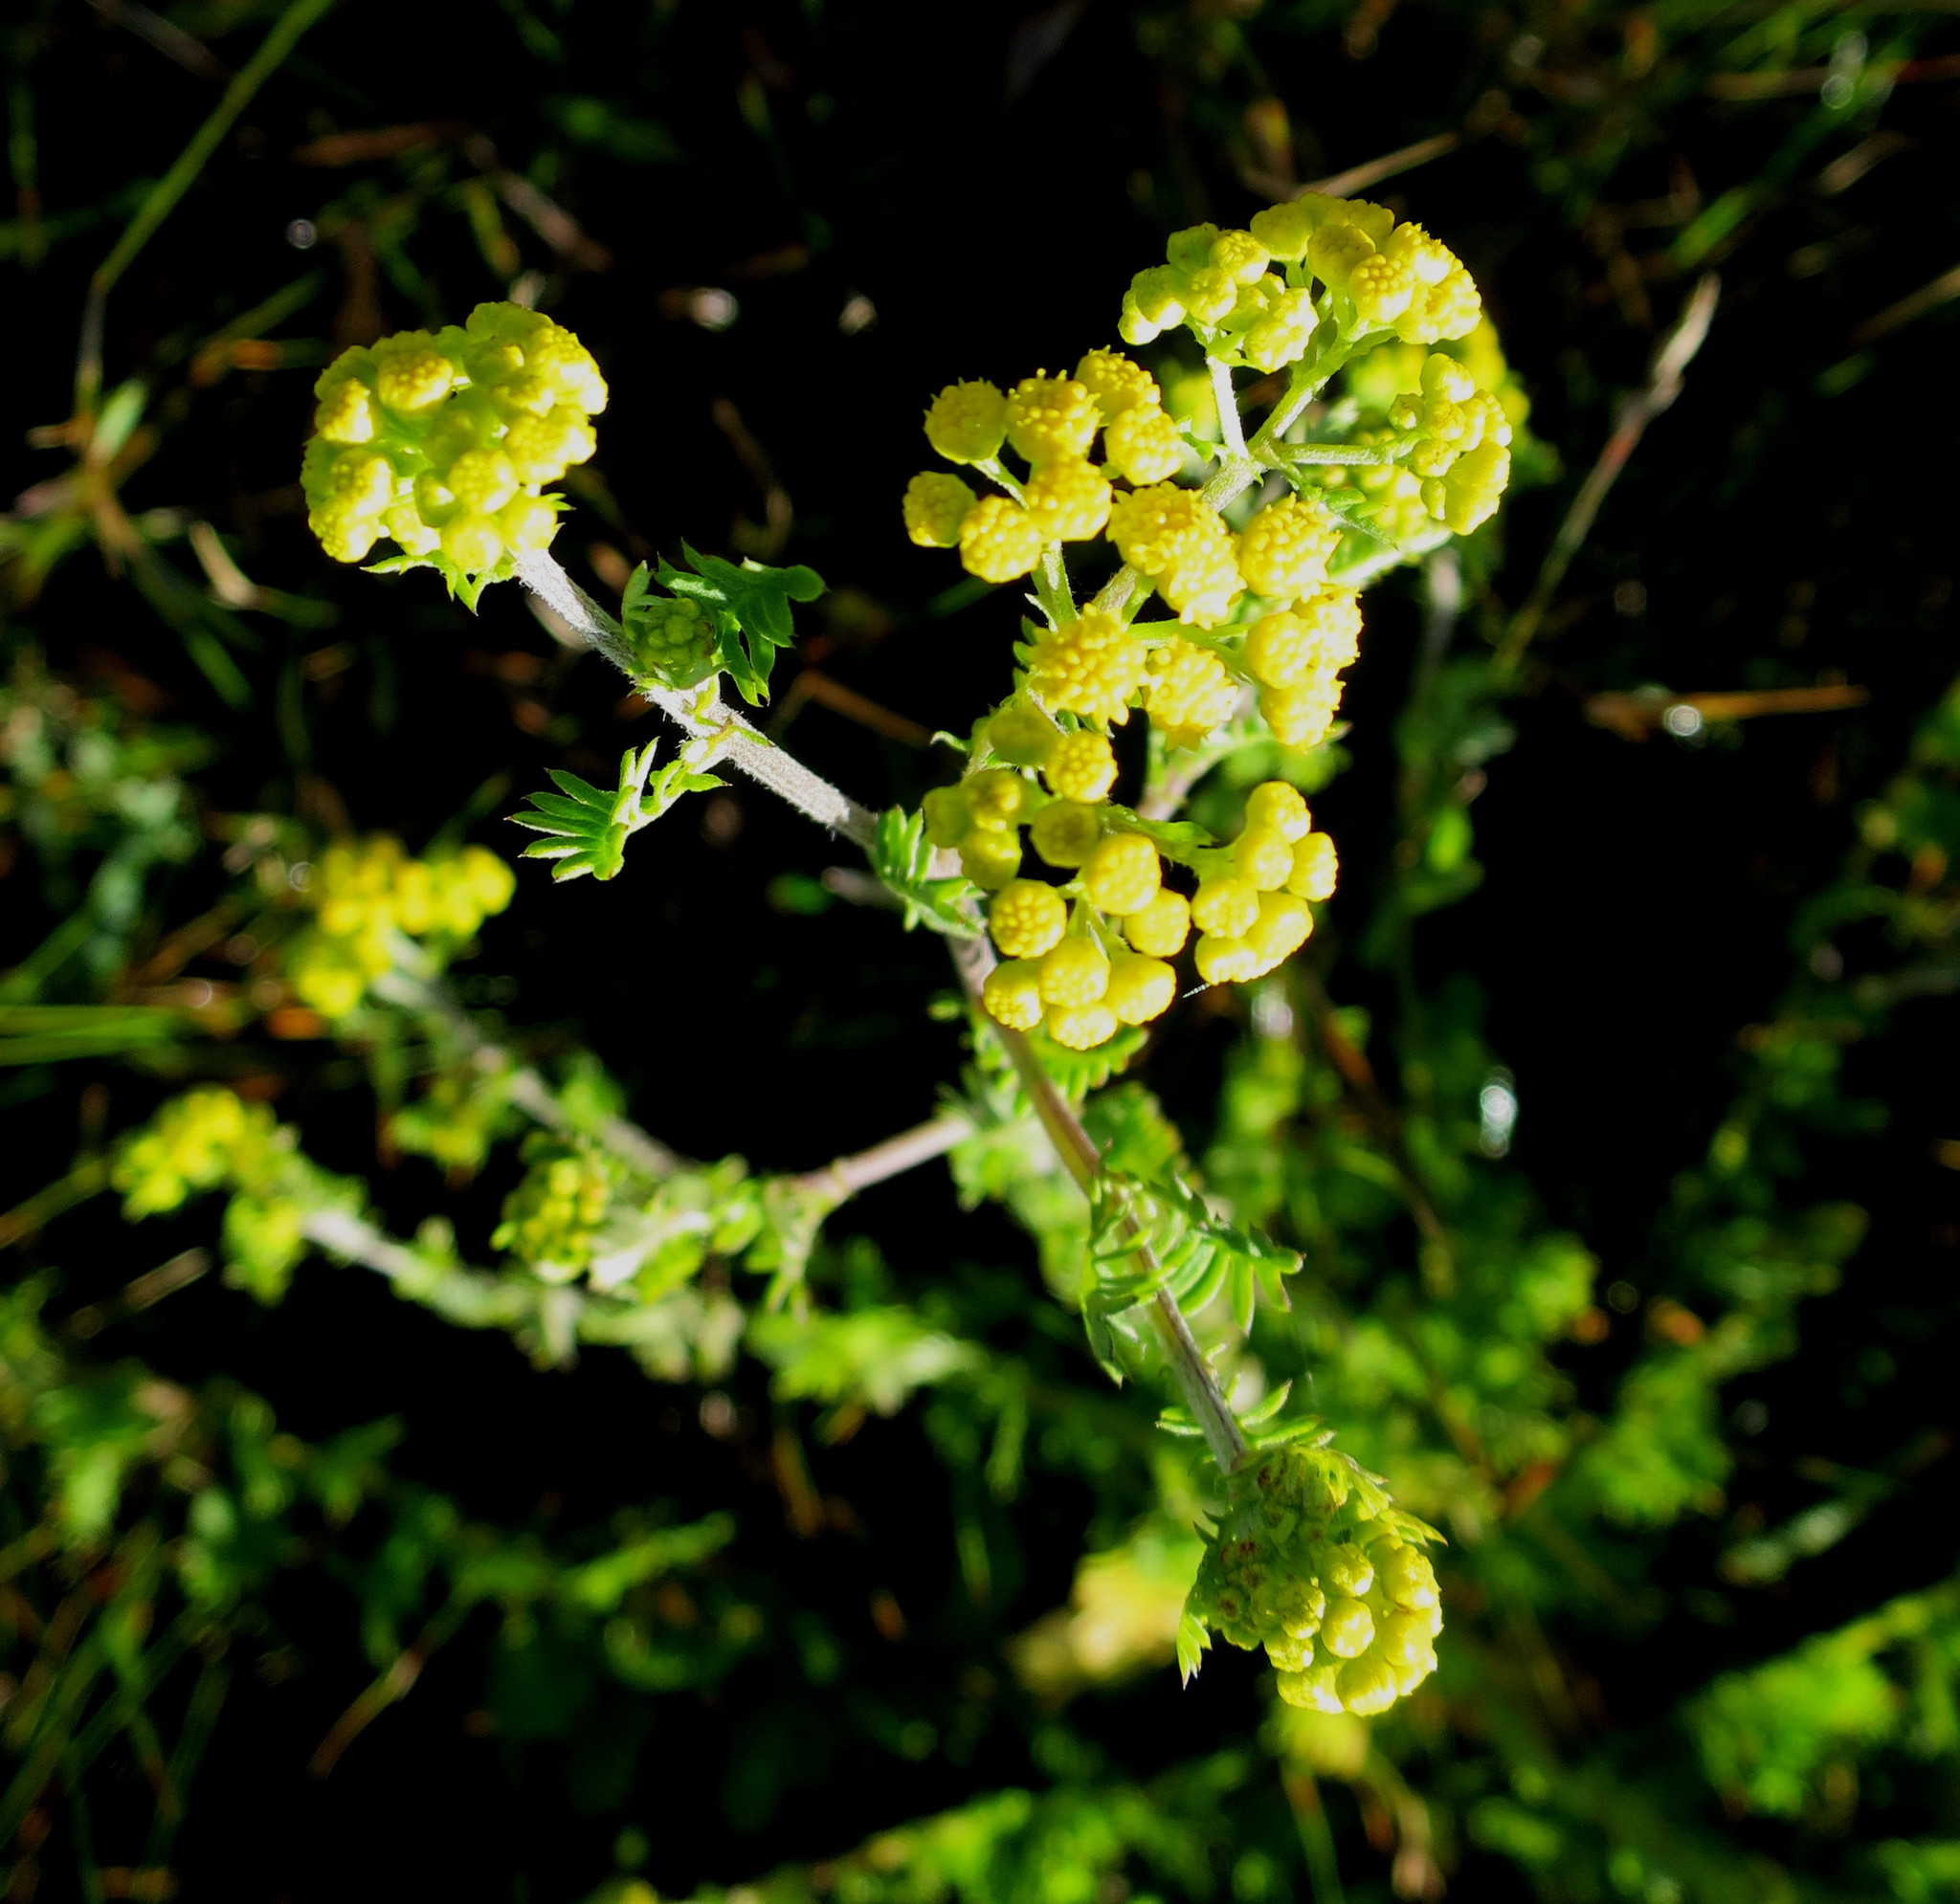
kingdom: Plantae
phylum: Tracheophyta
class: Magnoliopsida
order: Asterales
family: Asteraceae
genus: Hippia
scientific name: Hippia frutescens
